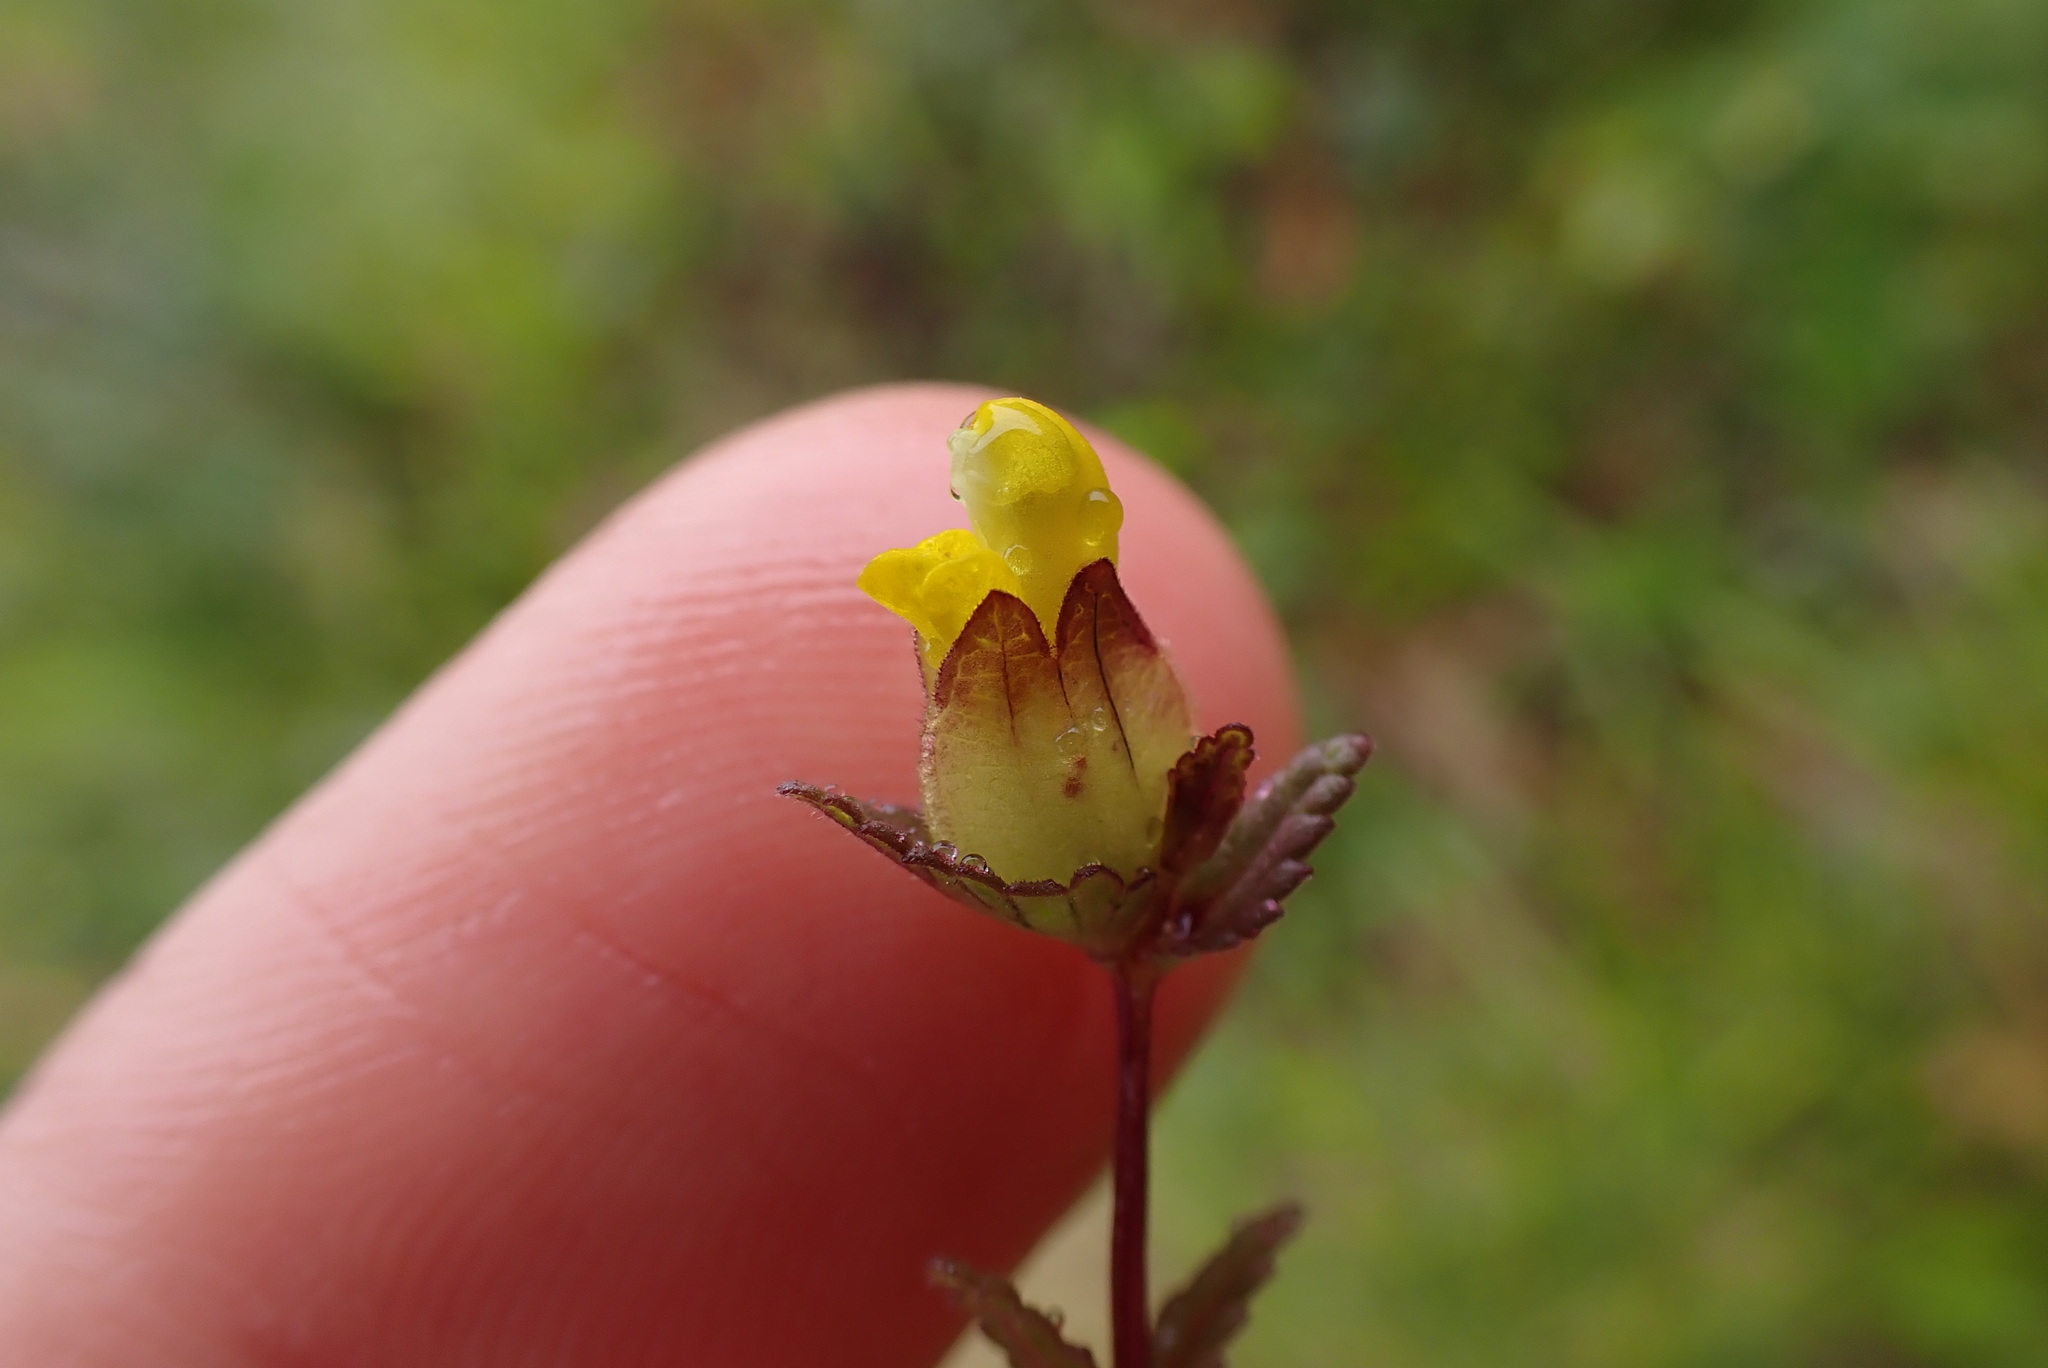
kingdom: Plantae
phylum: Tracheophyta
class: Magnoliopsida
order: Lamiales
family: Orobanchaceae
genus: Rhinanthus
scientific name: Rhinanthus minor
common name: Yellow-rattle
